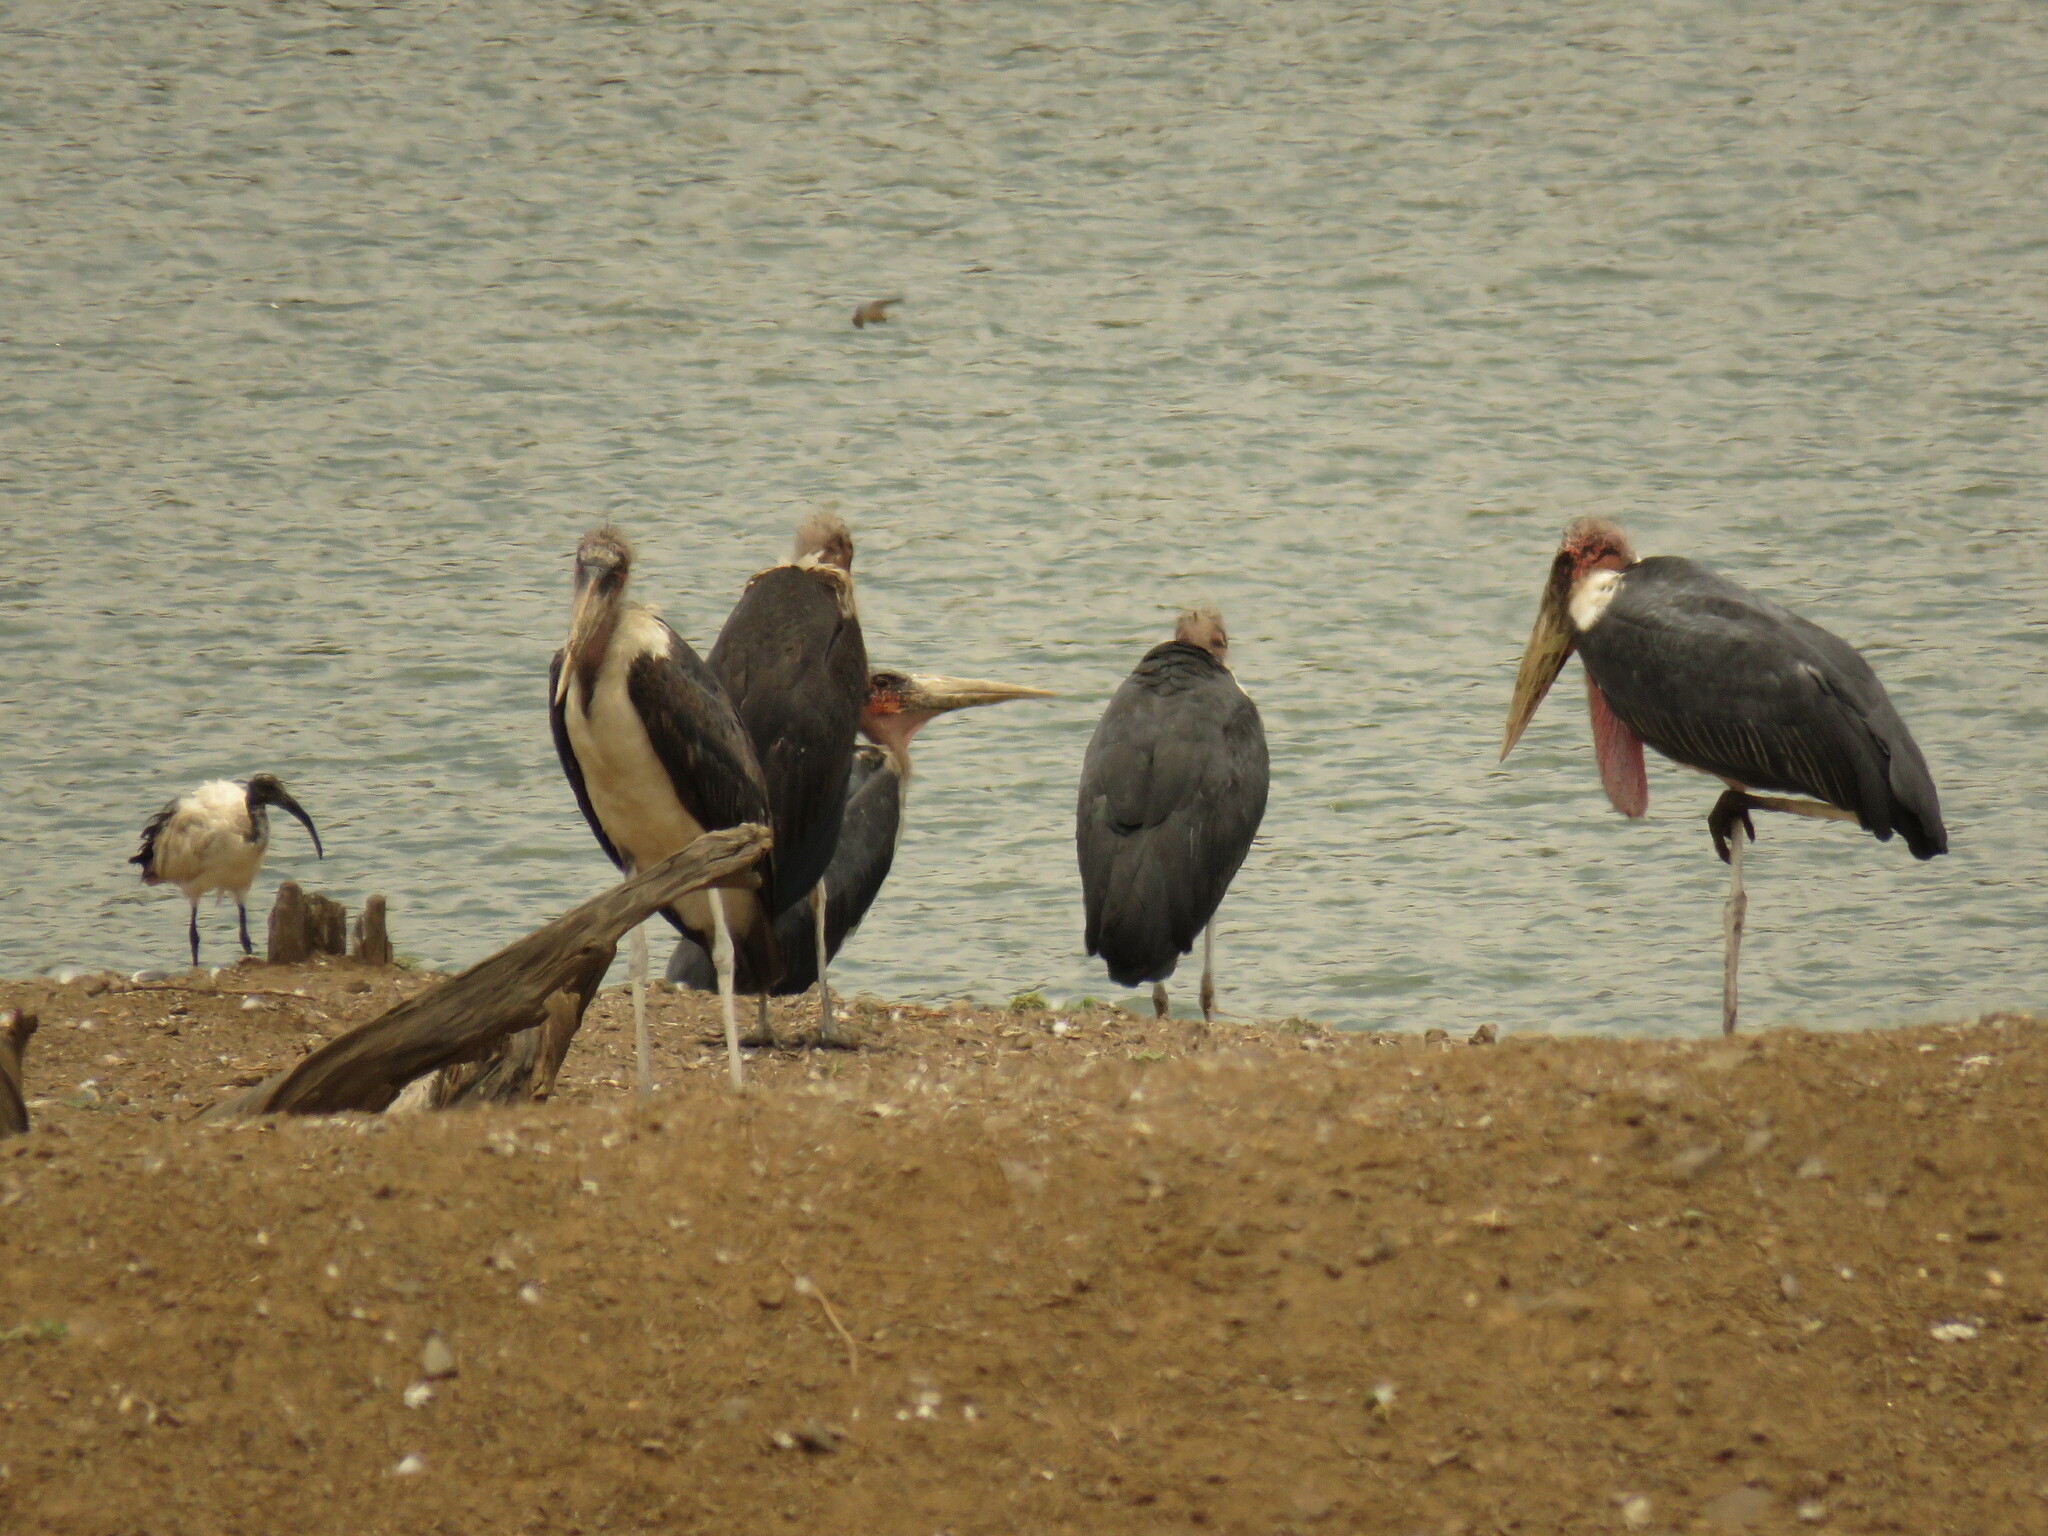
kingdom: Animalia
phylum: Chordata
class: Aves
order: Pelecaniformes
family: Threskiornithidae
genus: Threskiornis
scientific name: Threskiornis aethiopicus
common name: Sacred ibis
